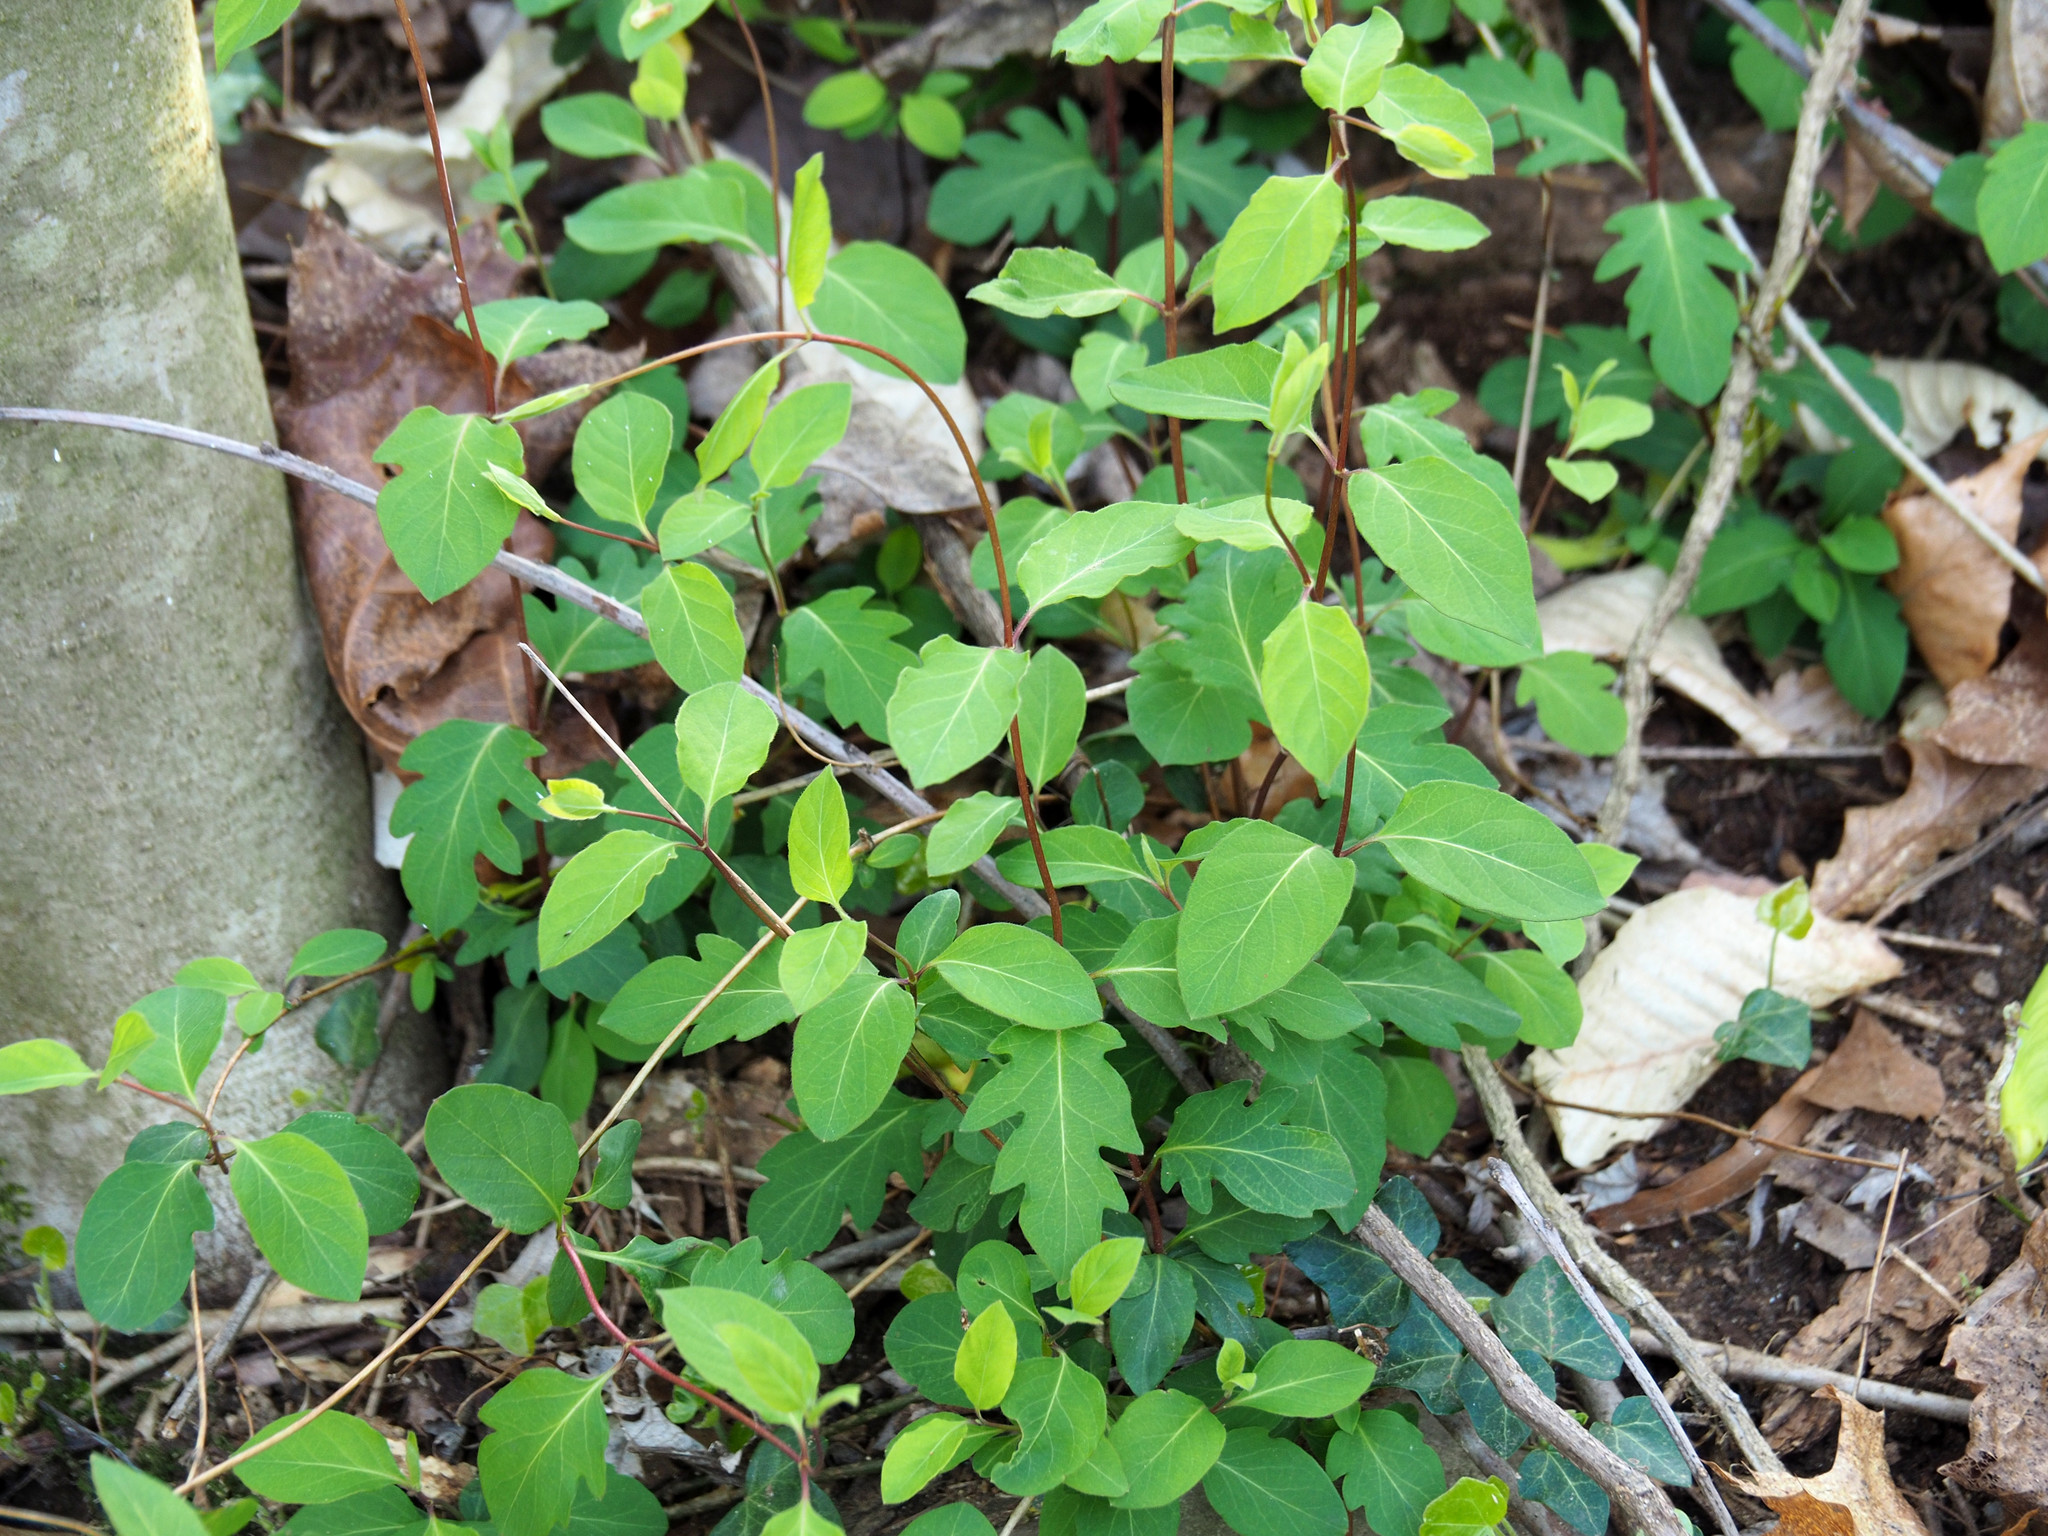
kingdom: Plantae
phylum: Tracheophyta
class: Magnoliopsida
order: Dipsacales
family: Caprifoliaceae
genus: Lonicera
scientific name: Lonicera japonica
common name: Japanese honeysuckle
